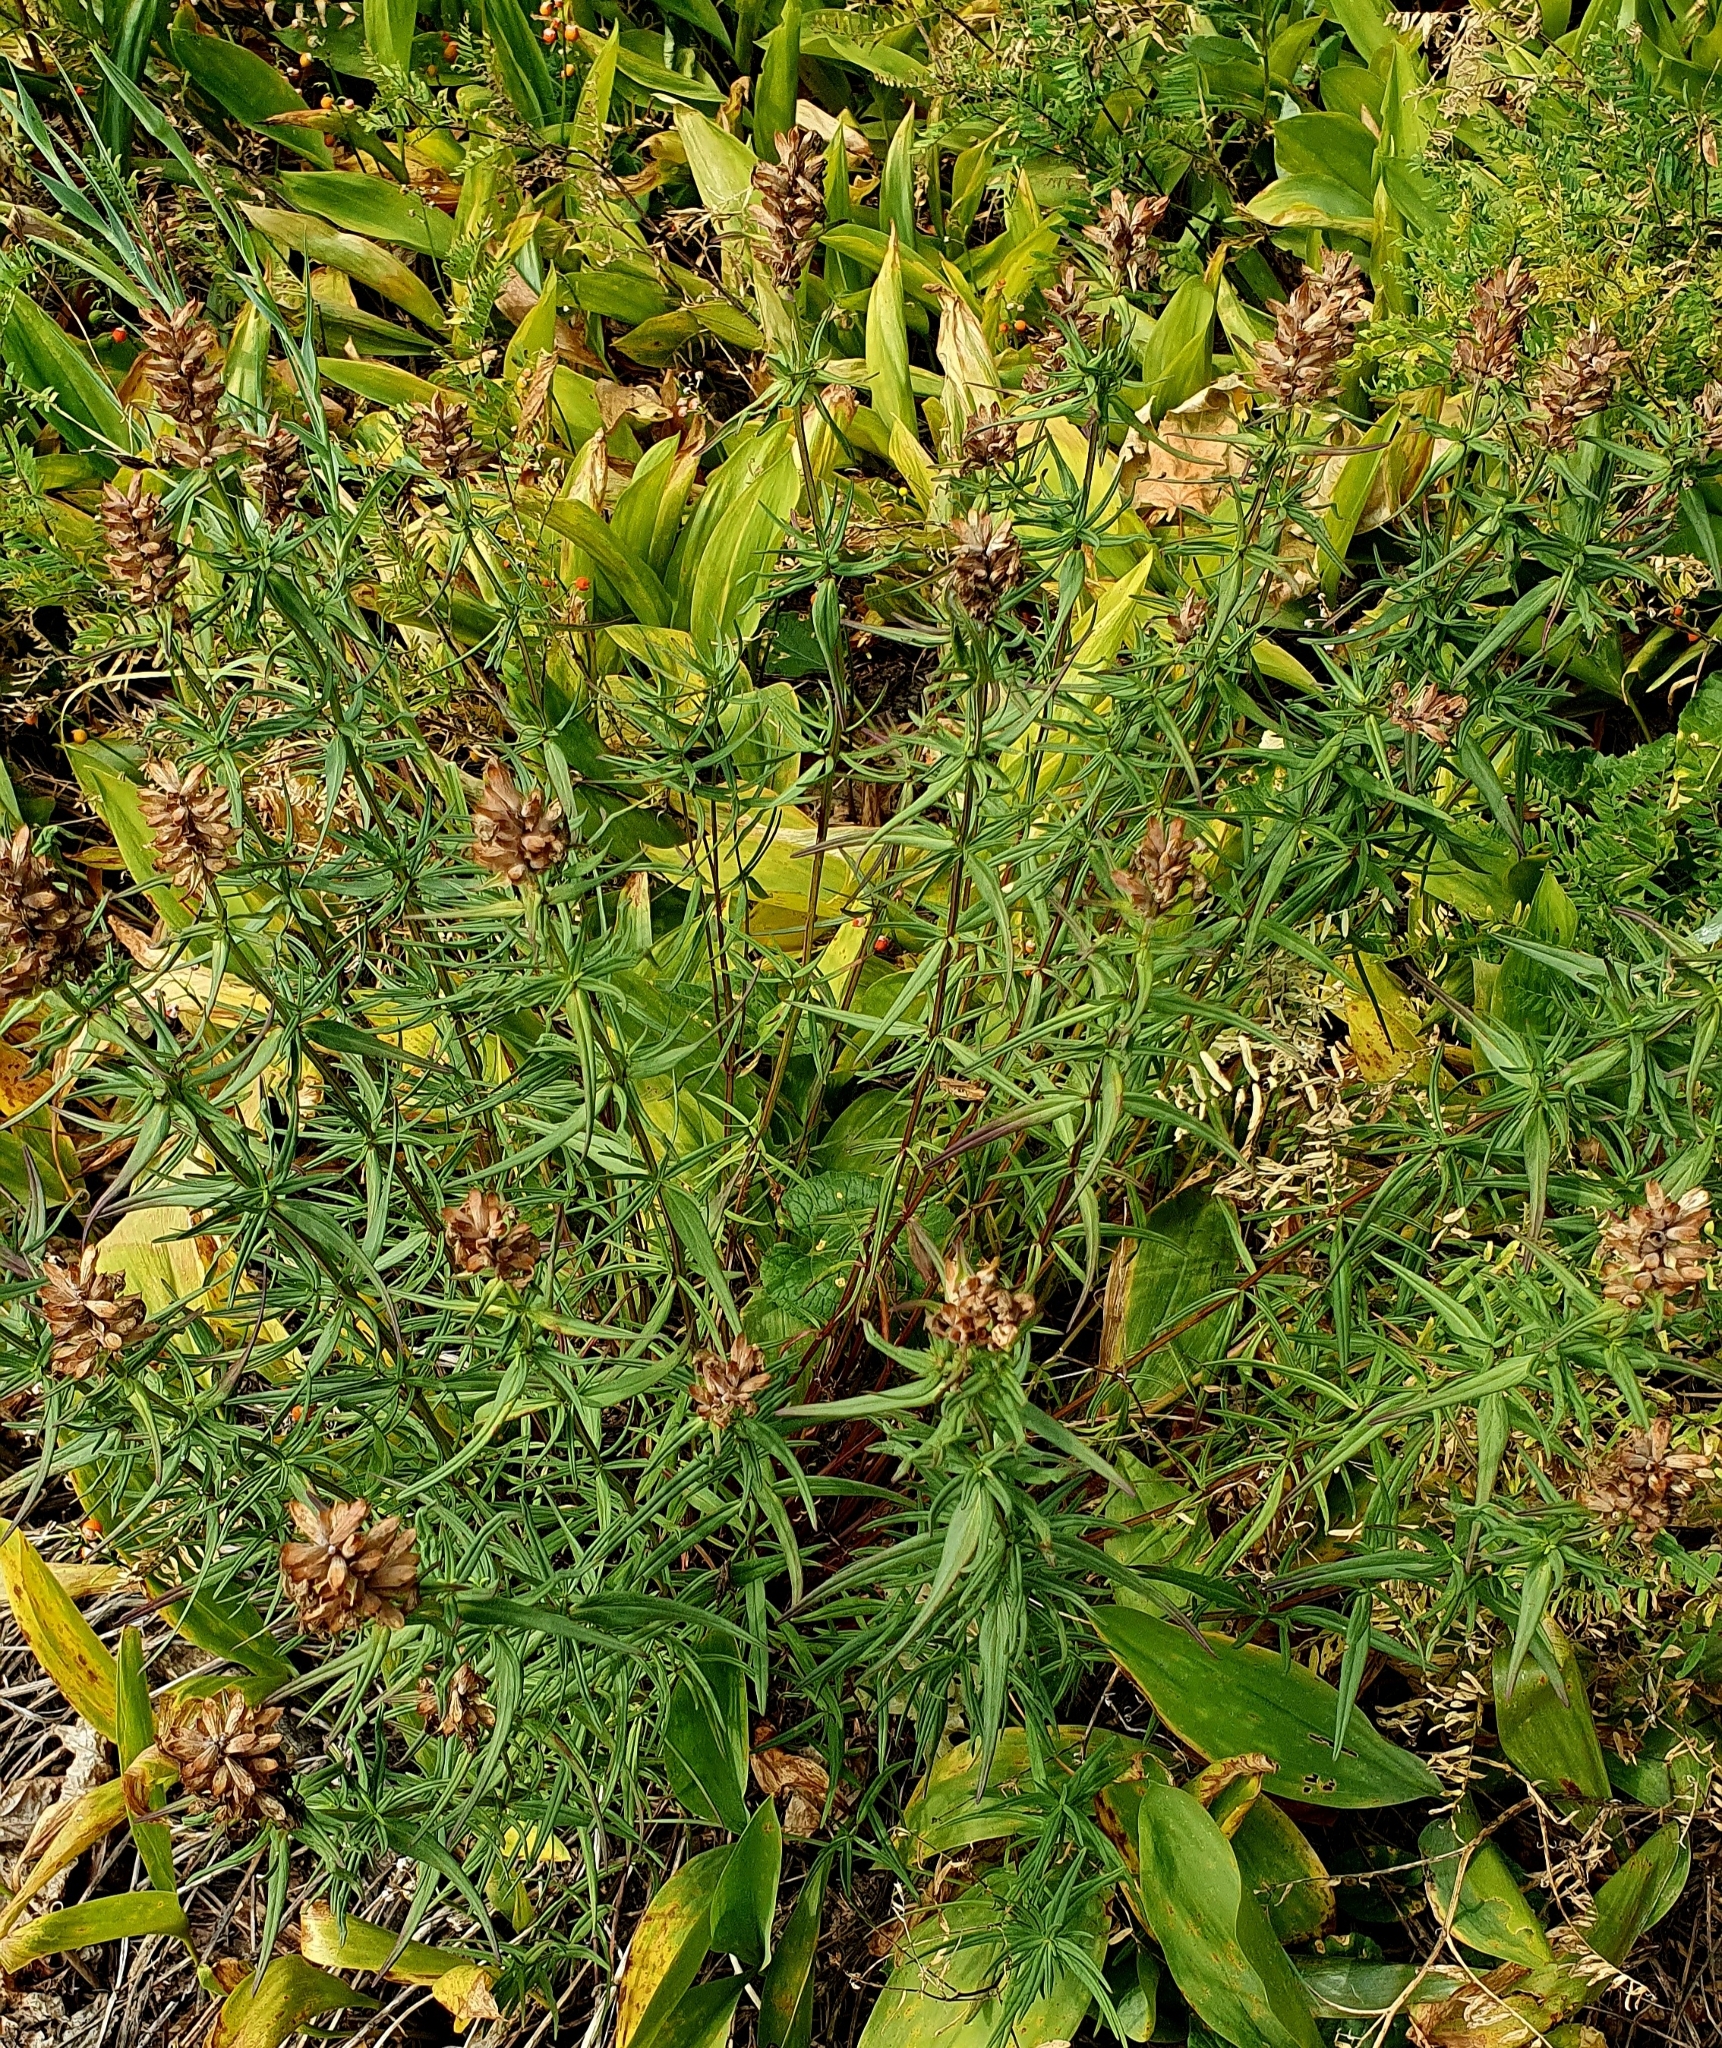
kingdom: Plantae
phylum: Tracheophyta
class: Magnoliopsida
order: Lamiales
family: Lamiaceae
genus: Dracocephalum
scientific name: Dracocephalum ruyschiana
